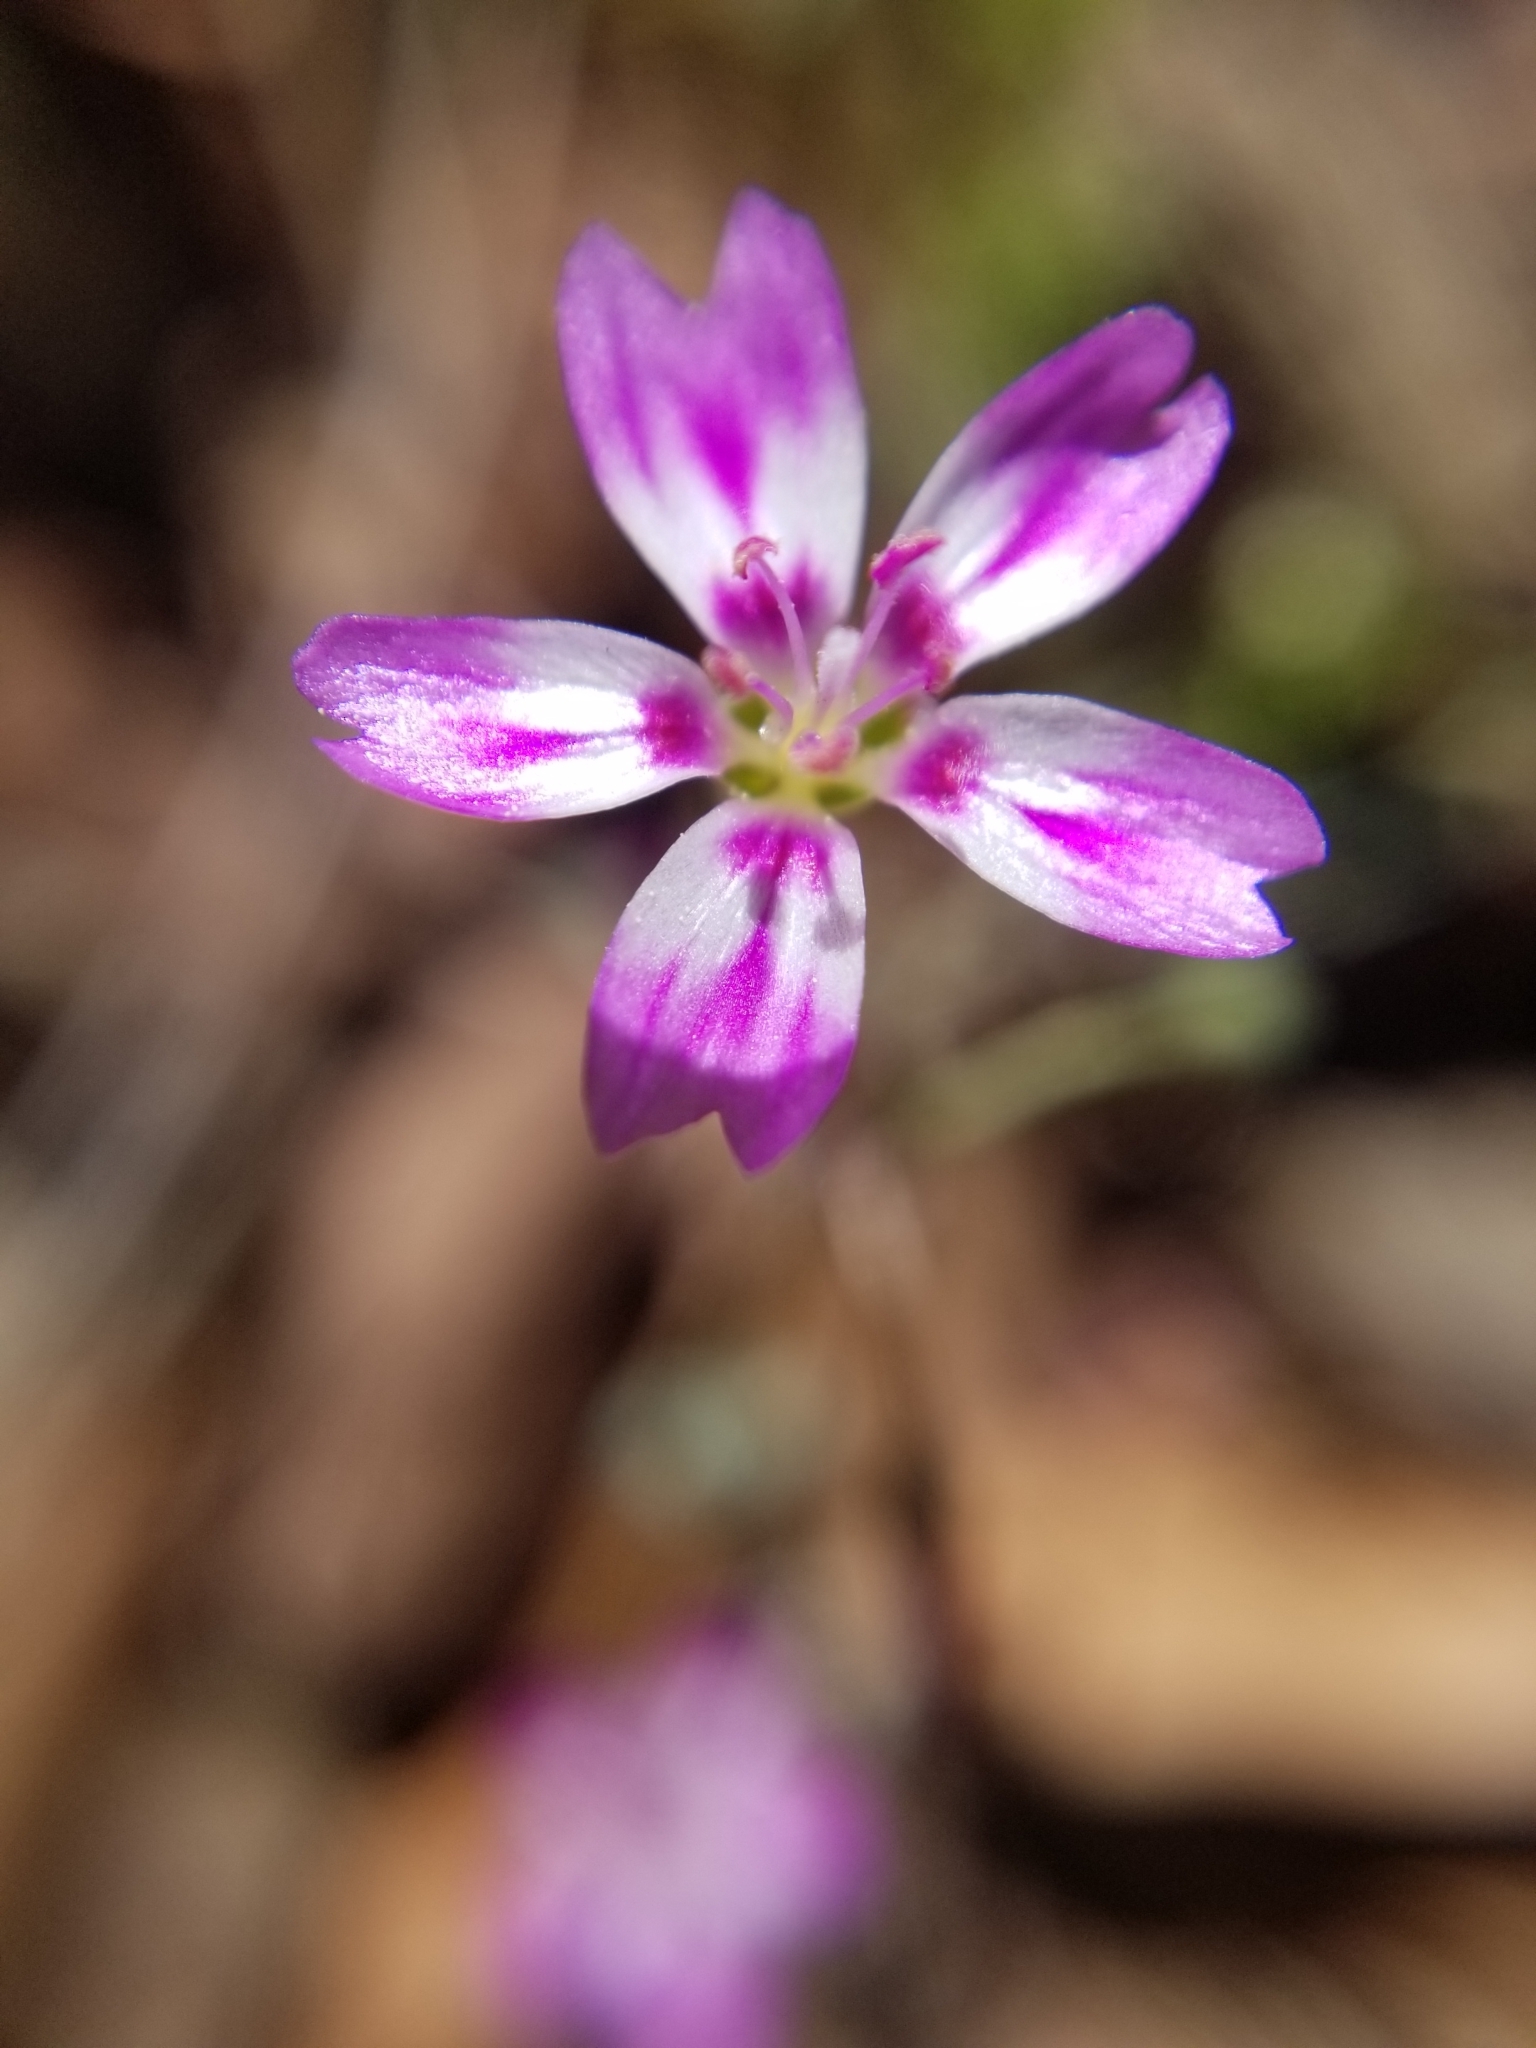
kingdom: Plantae
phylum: Tracheophyta
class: Magnoliopsida
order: Caryophyllales
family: Montiaceae
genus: Claytonia
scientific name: Claytonia gypsophiloides
